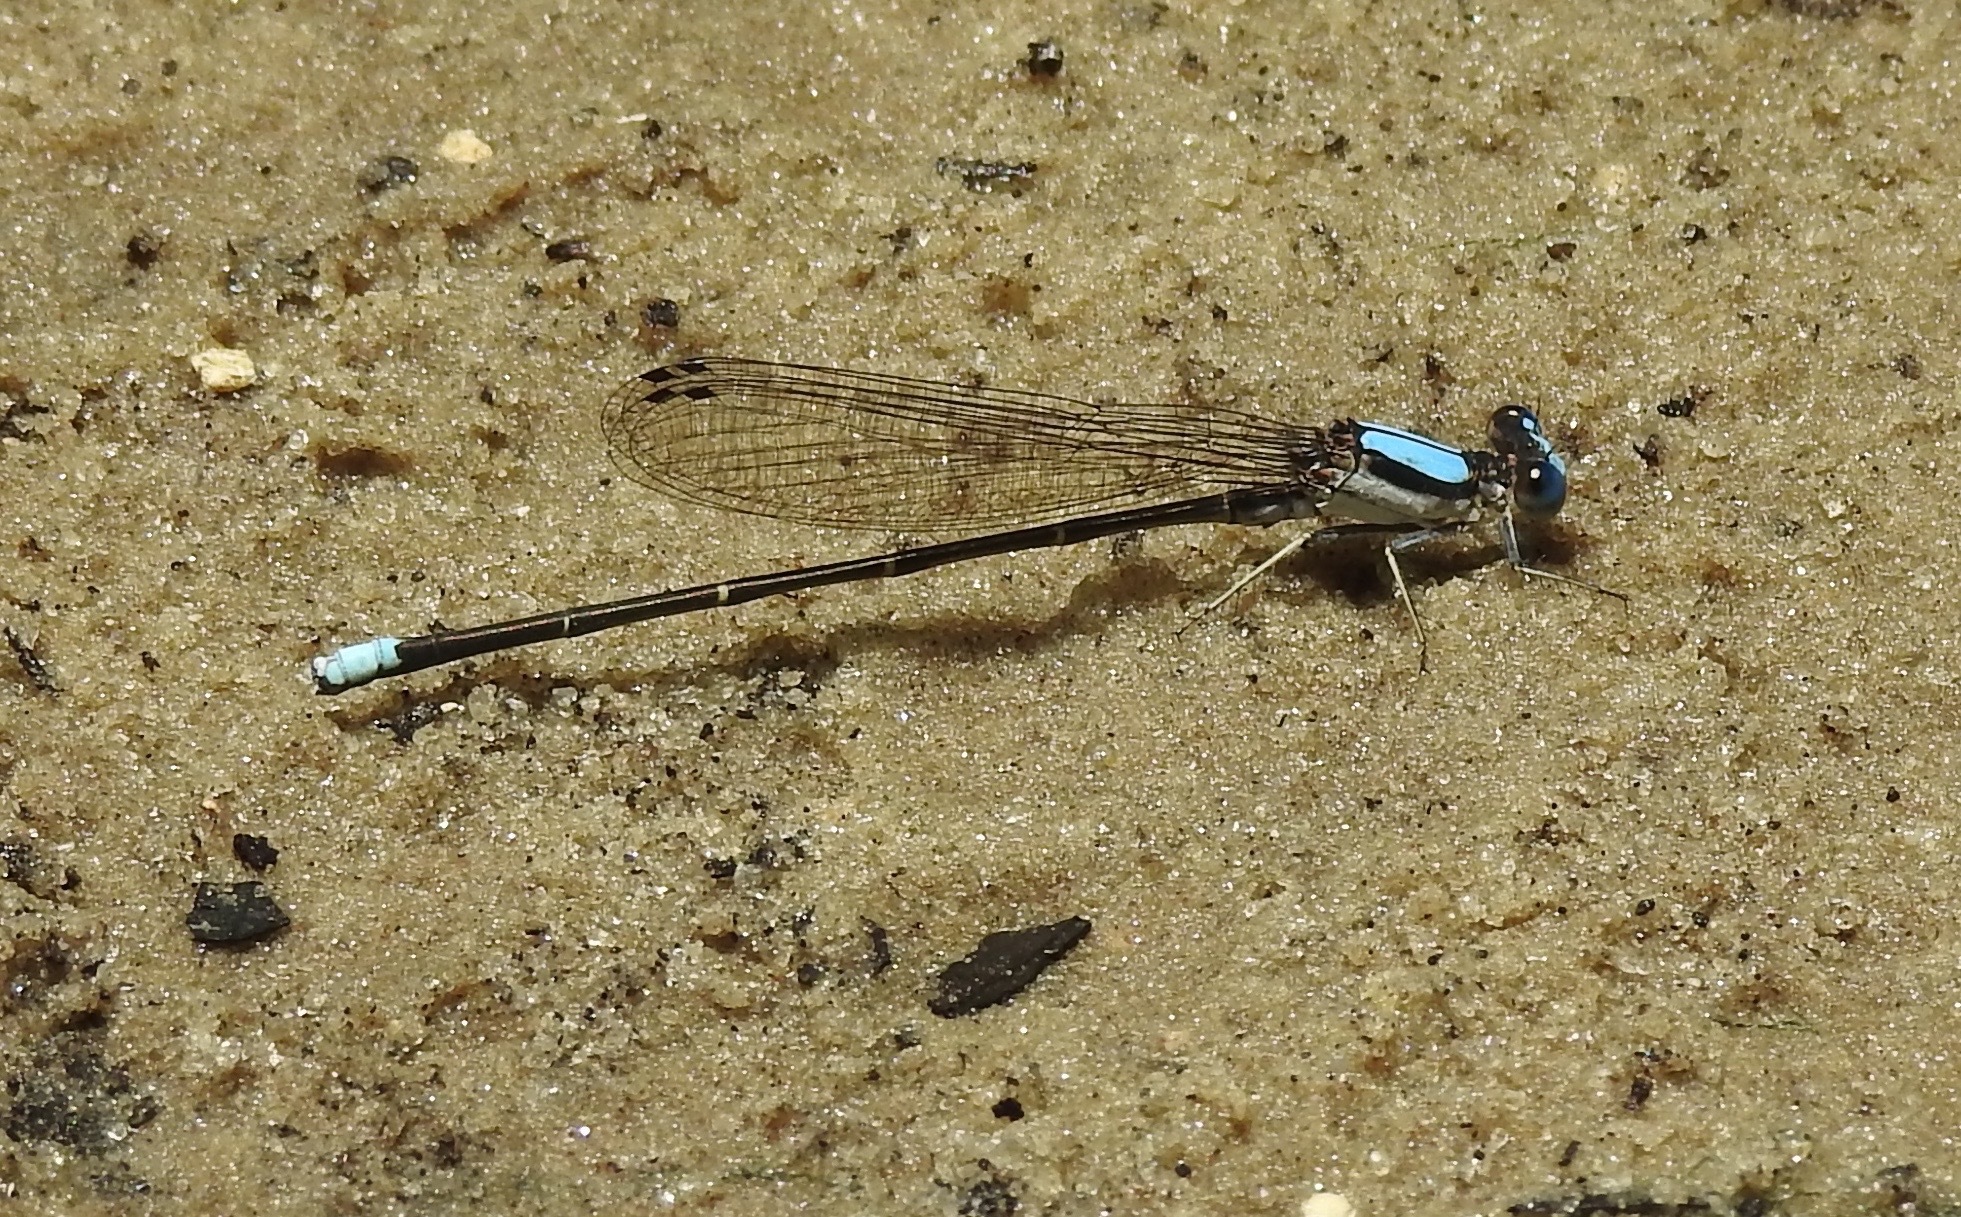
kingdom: Animalia
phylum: Arthropoda
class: Insecta
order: Odonata
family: Coenagrionidae
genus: Argia
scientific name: Argia apicalis
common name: Blue-fronted dancer
